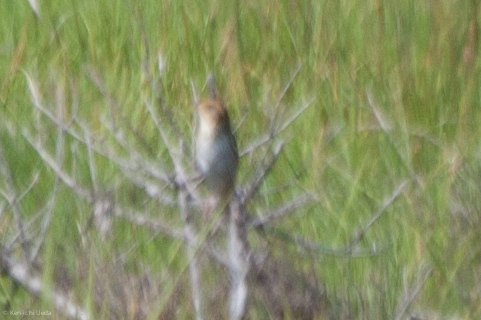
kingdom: Animalia
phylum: Chordata
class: Aves
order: Passeriformes
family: Passerellidae
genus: Ammospiza
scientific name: Ammospiza caudacuta
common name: Saltmarsh sparrow
